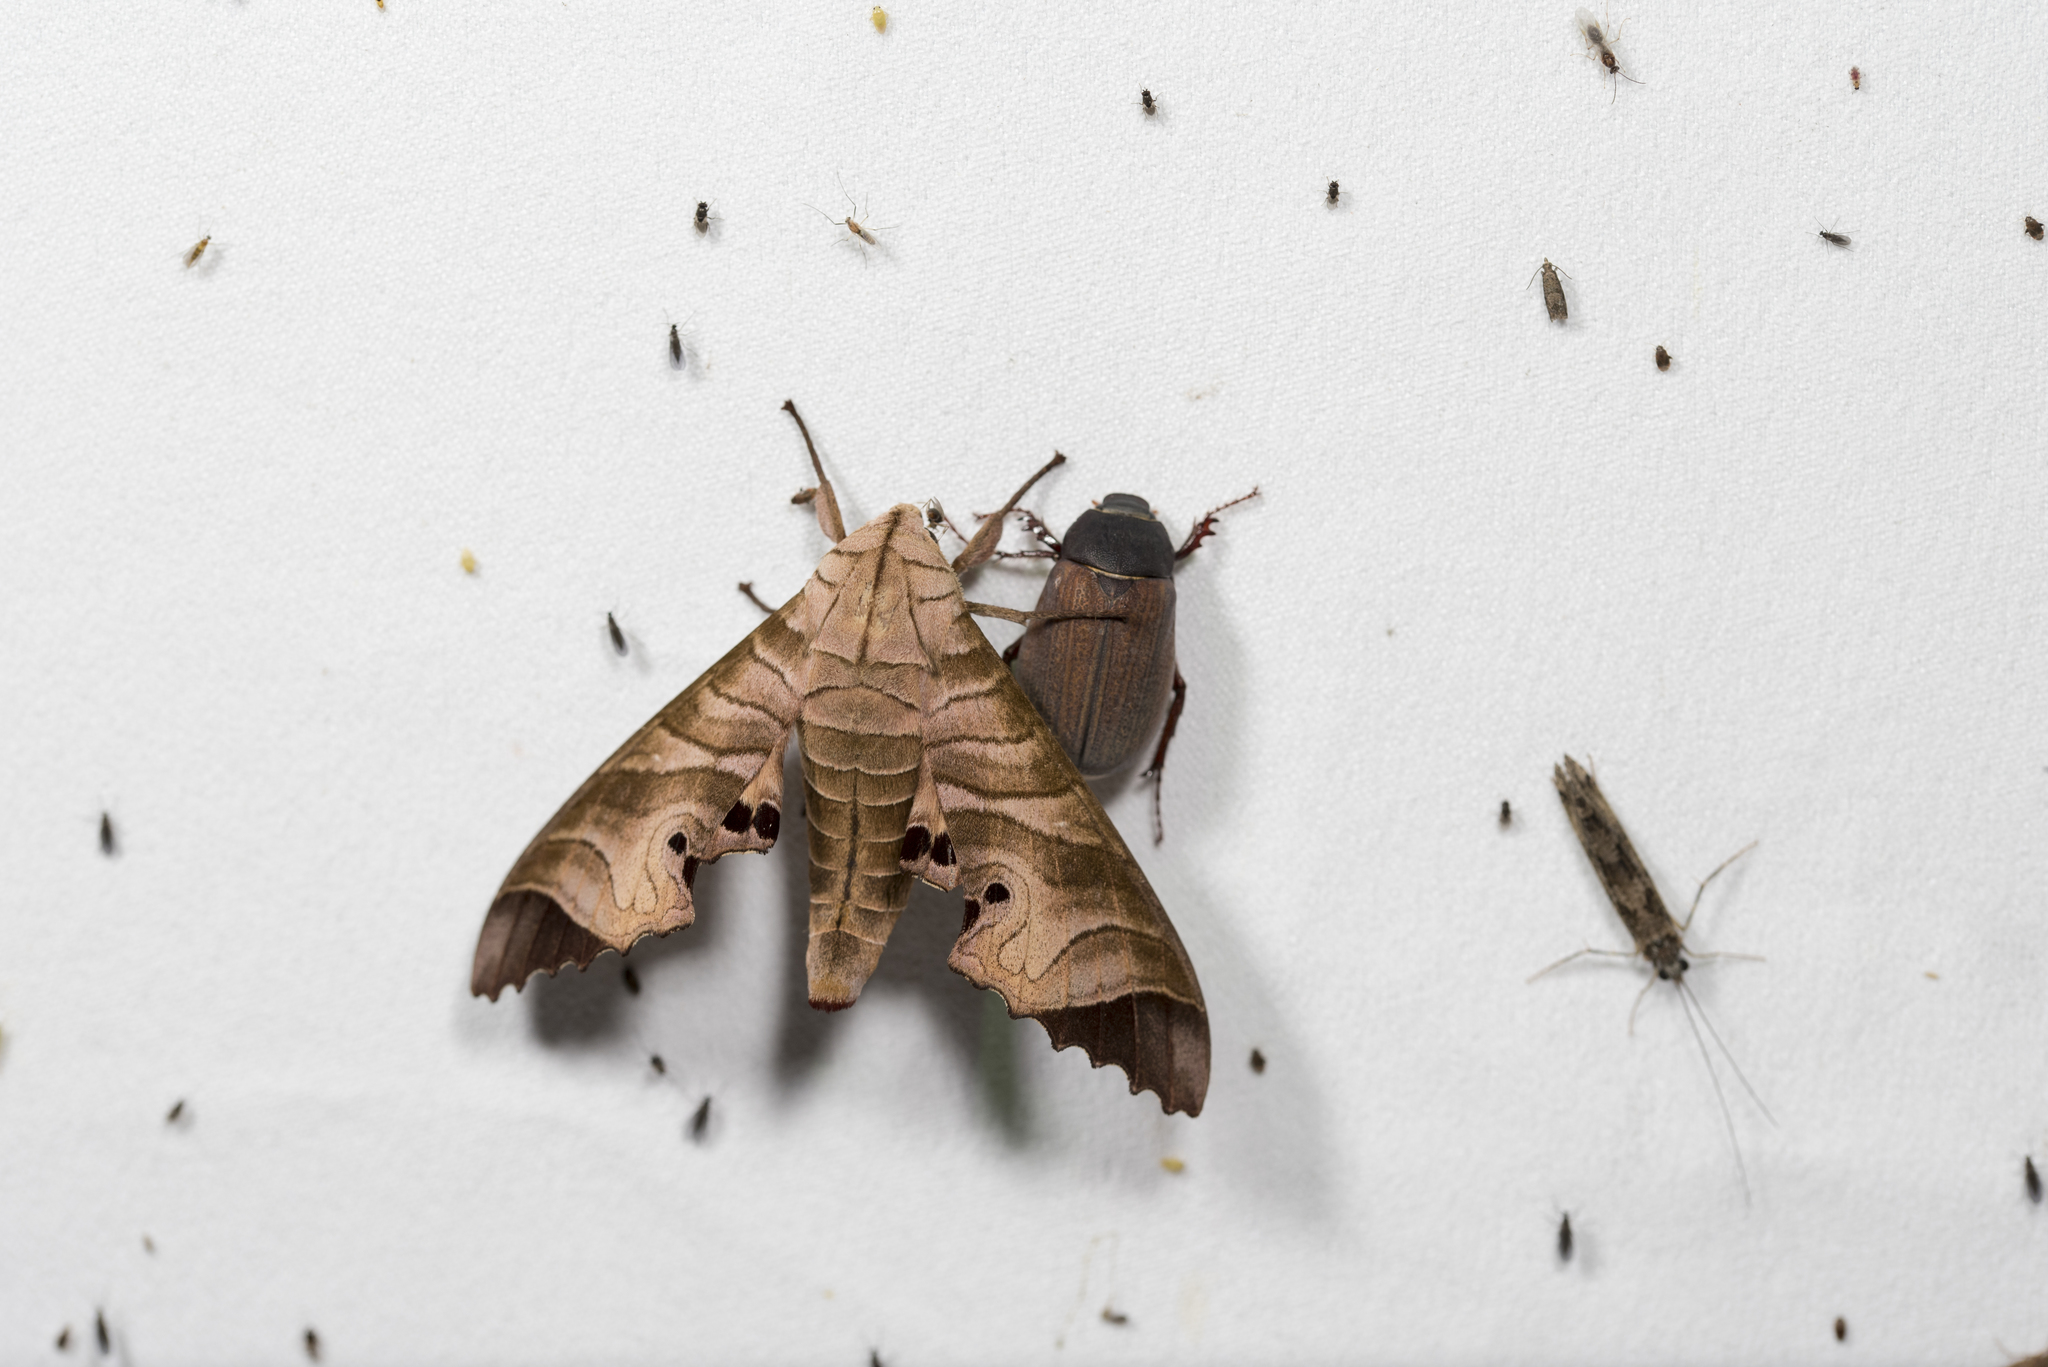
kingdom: Animalia
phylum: Arthropoda
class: Insecta
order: Lepidoptera
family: Sphingidae
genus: Marumba
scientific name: Marumba saishiuana
